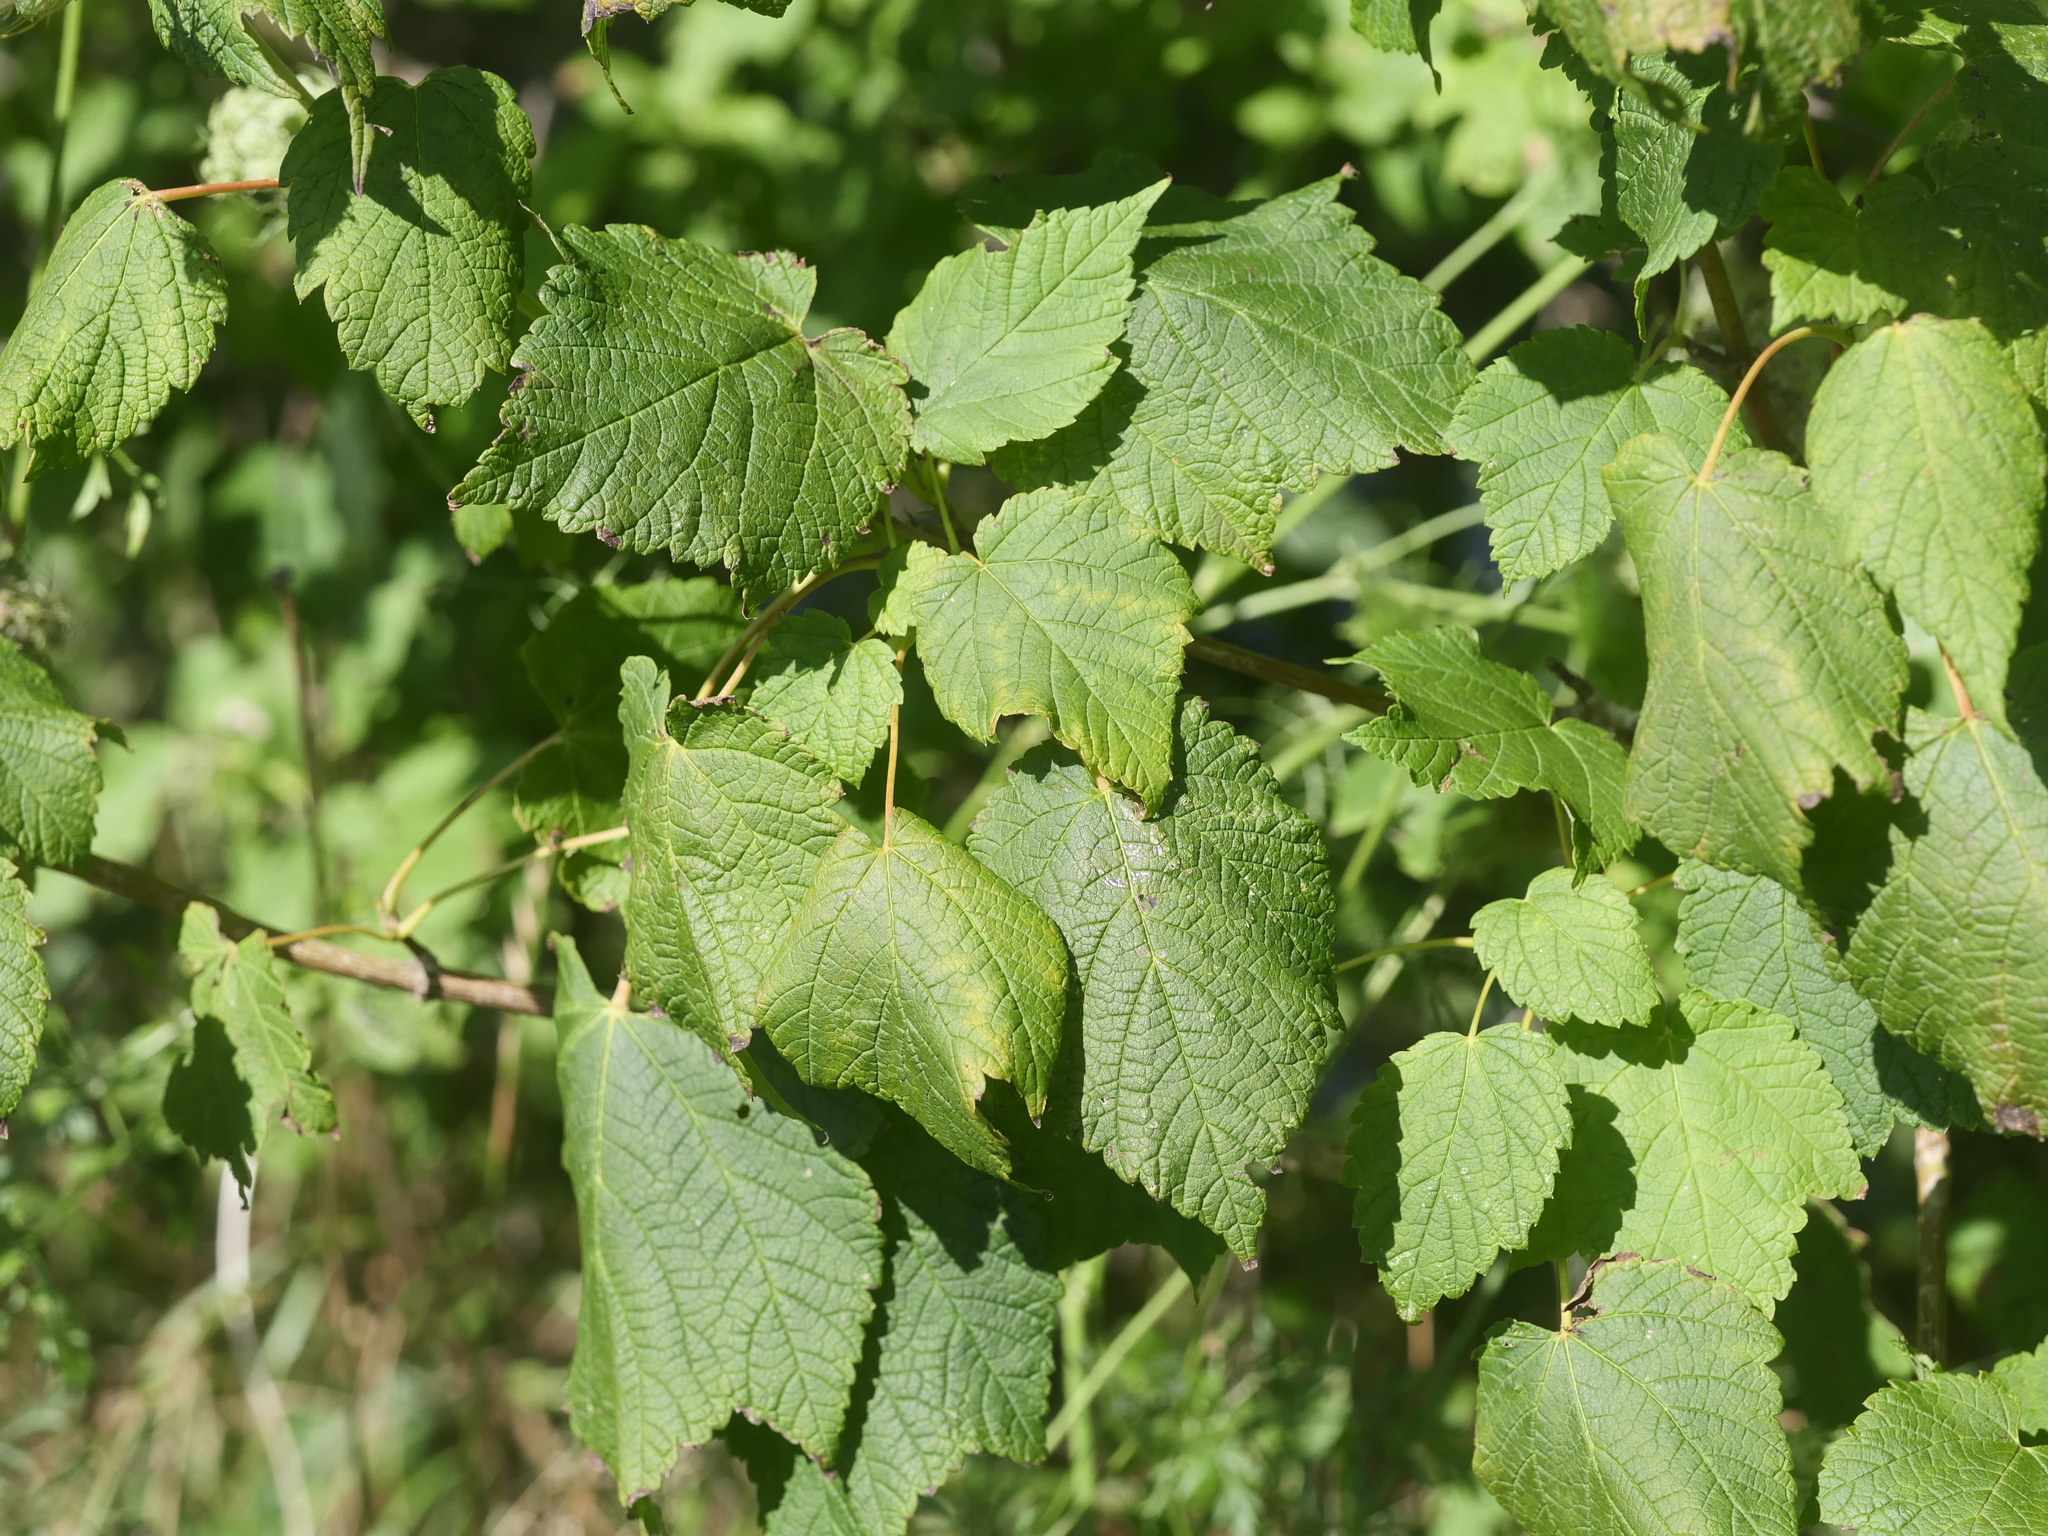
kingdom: Plantae
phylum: Tracheophyta
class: Magnoliopsida
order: Sapindales
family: Sapindaceae
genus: Acer
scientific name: Acer spicatum
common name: Mountain maple
